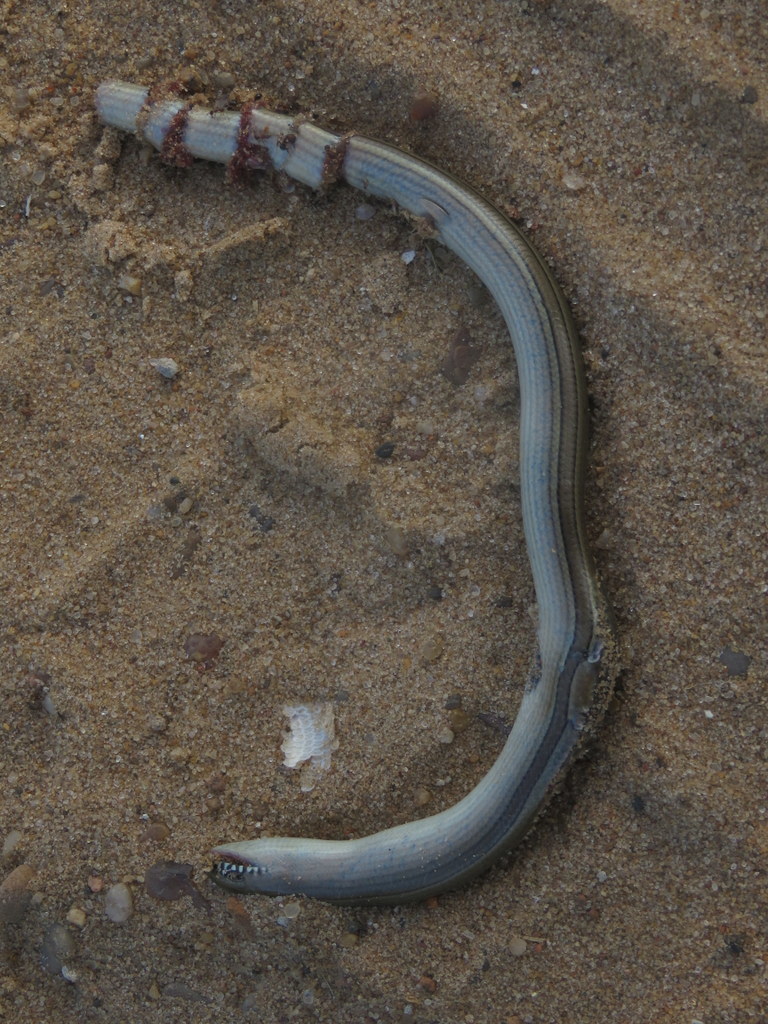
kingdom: Animalia
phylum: Chordata
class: Squamata
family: Diploglossidae
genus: Ophiodes
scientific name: Ophiodes intermedius
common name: Middle worm lizard
